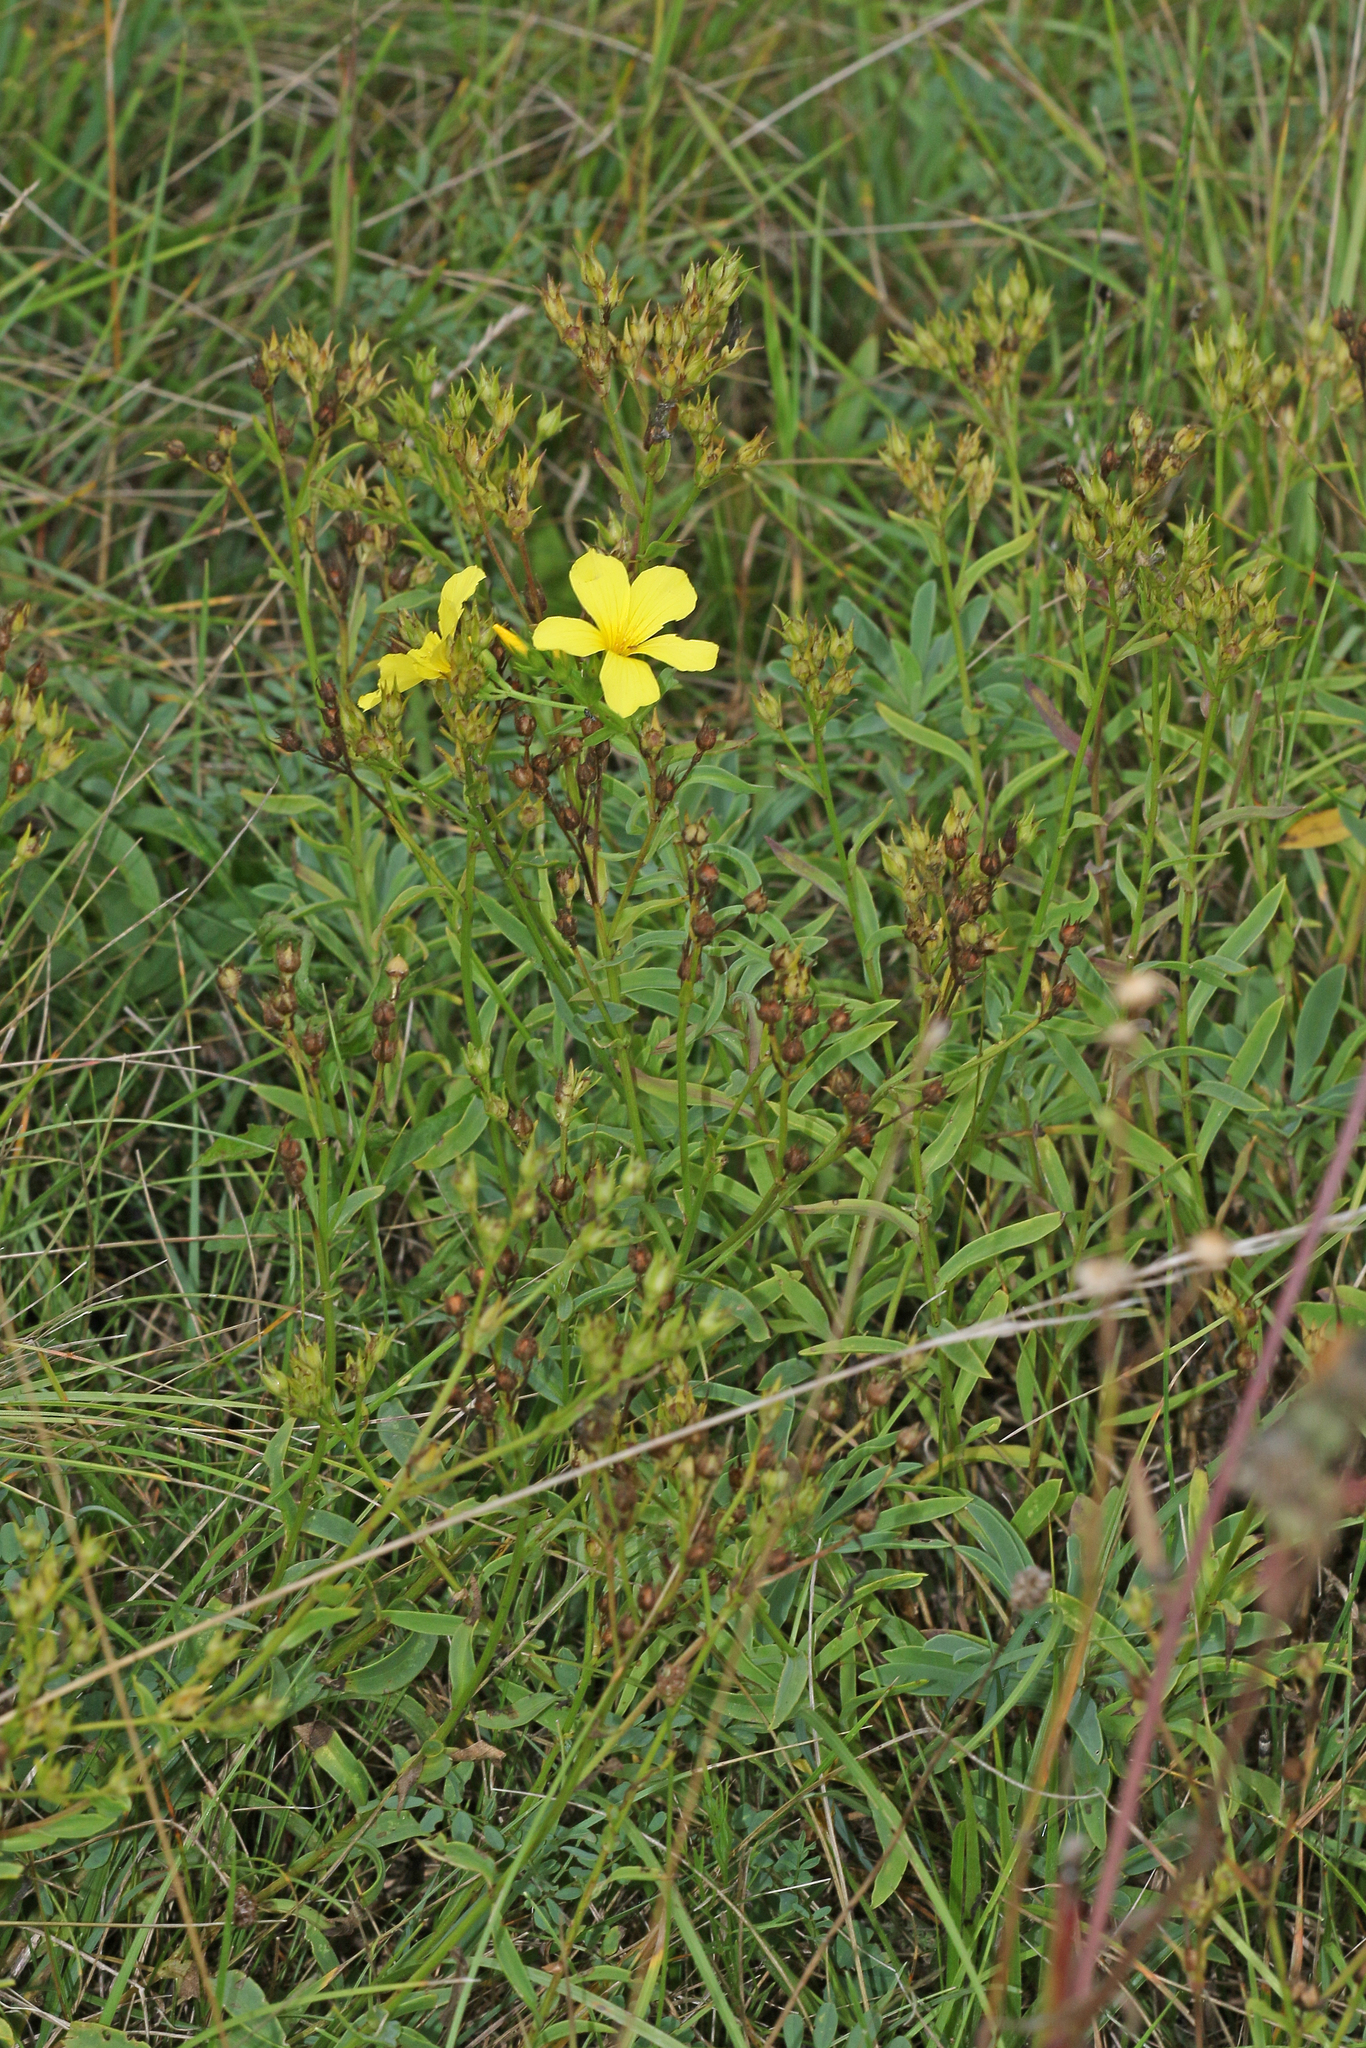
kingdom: Plantae
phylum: Tracheophyta
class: Magnoliopsida
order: Malpighiales
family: Linaceae
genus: Linum
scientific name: Linum flavum
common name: Yellow flax
